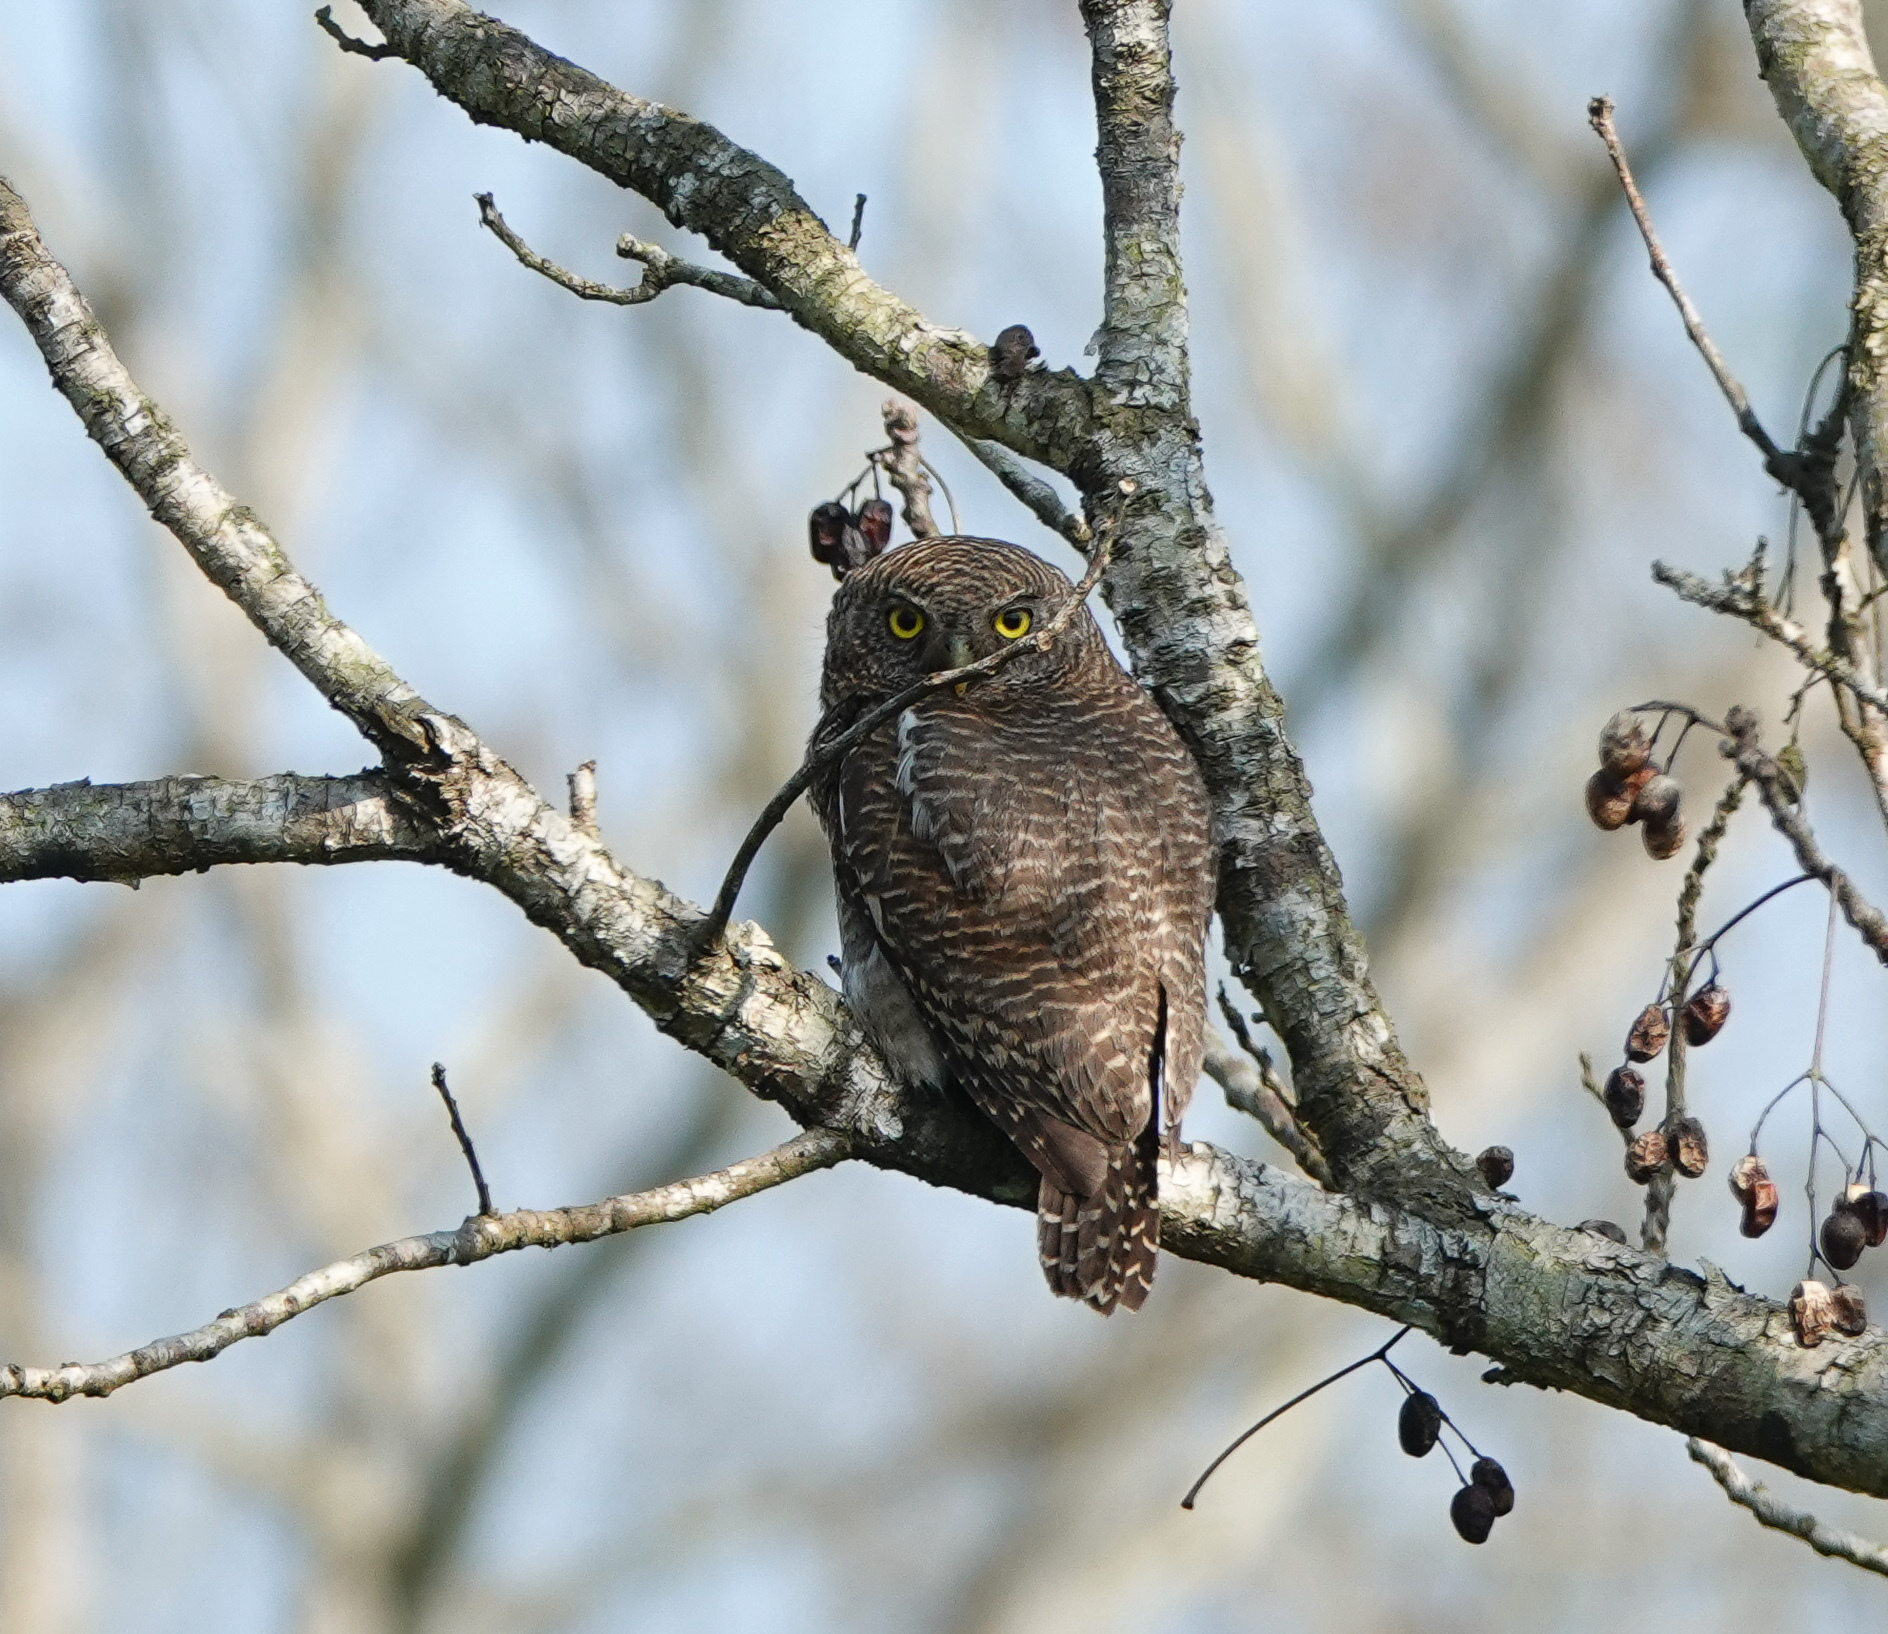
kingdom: Animalia
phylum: Chordata
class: Aves
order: Strigiformes
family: Strigidae
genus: Glaucidium
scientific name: Glaucidium cuculoides
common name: Asian barred owlet
